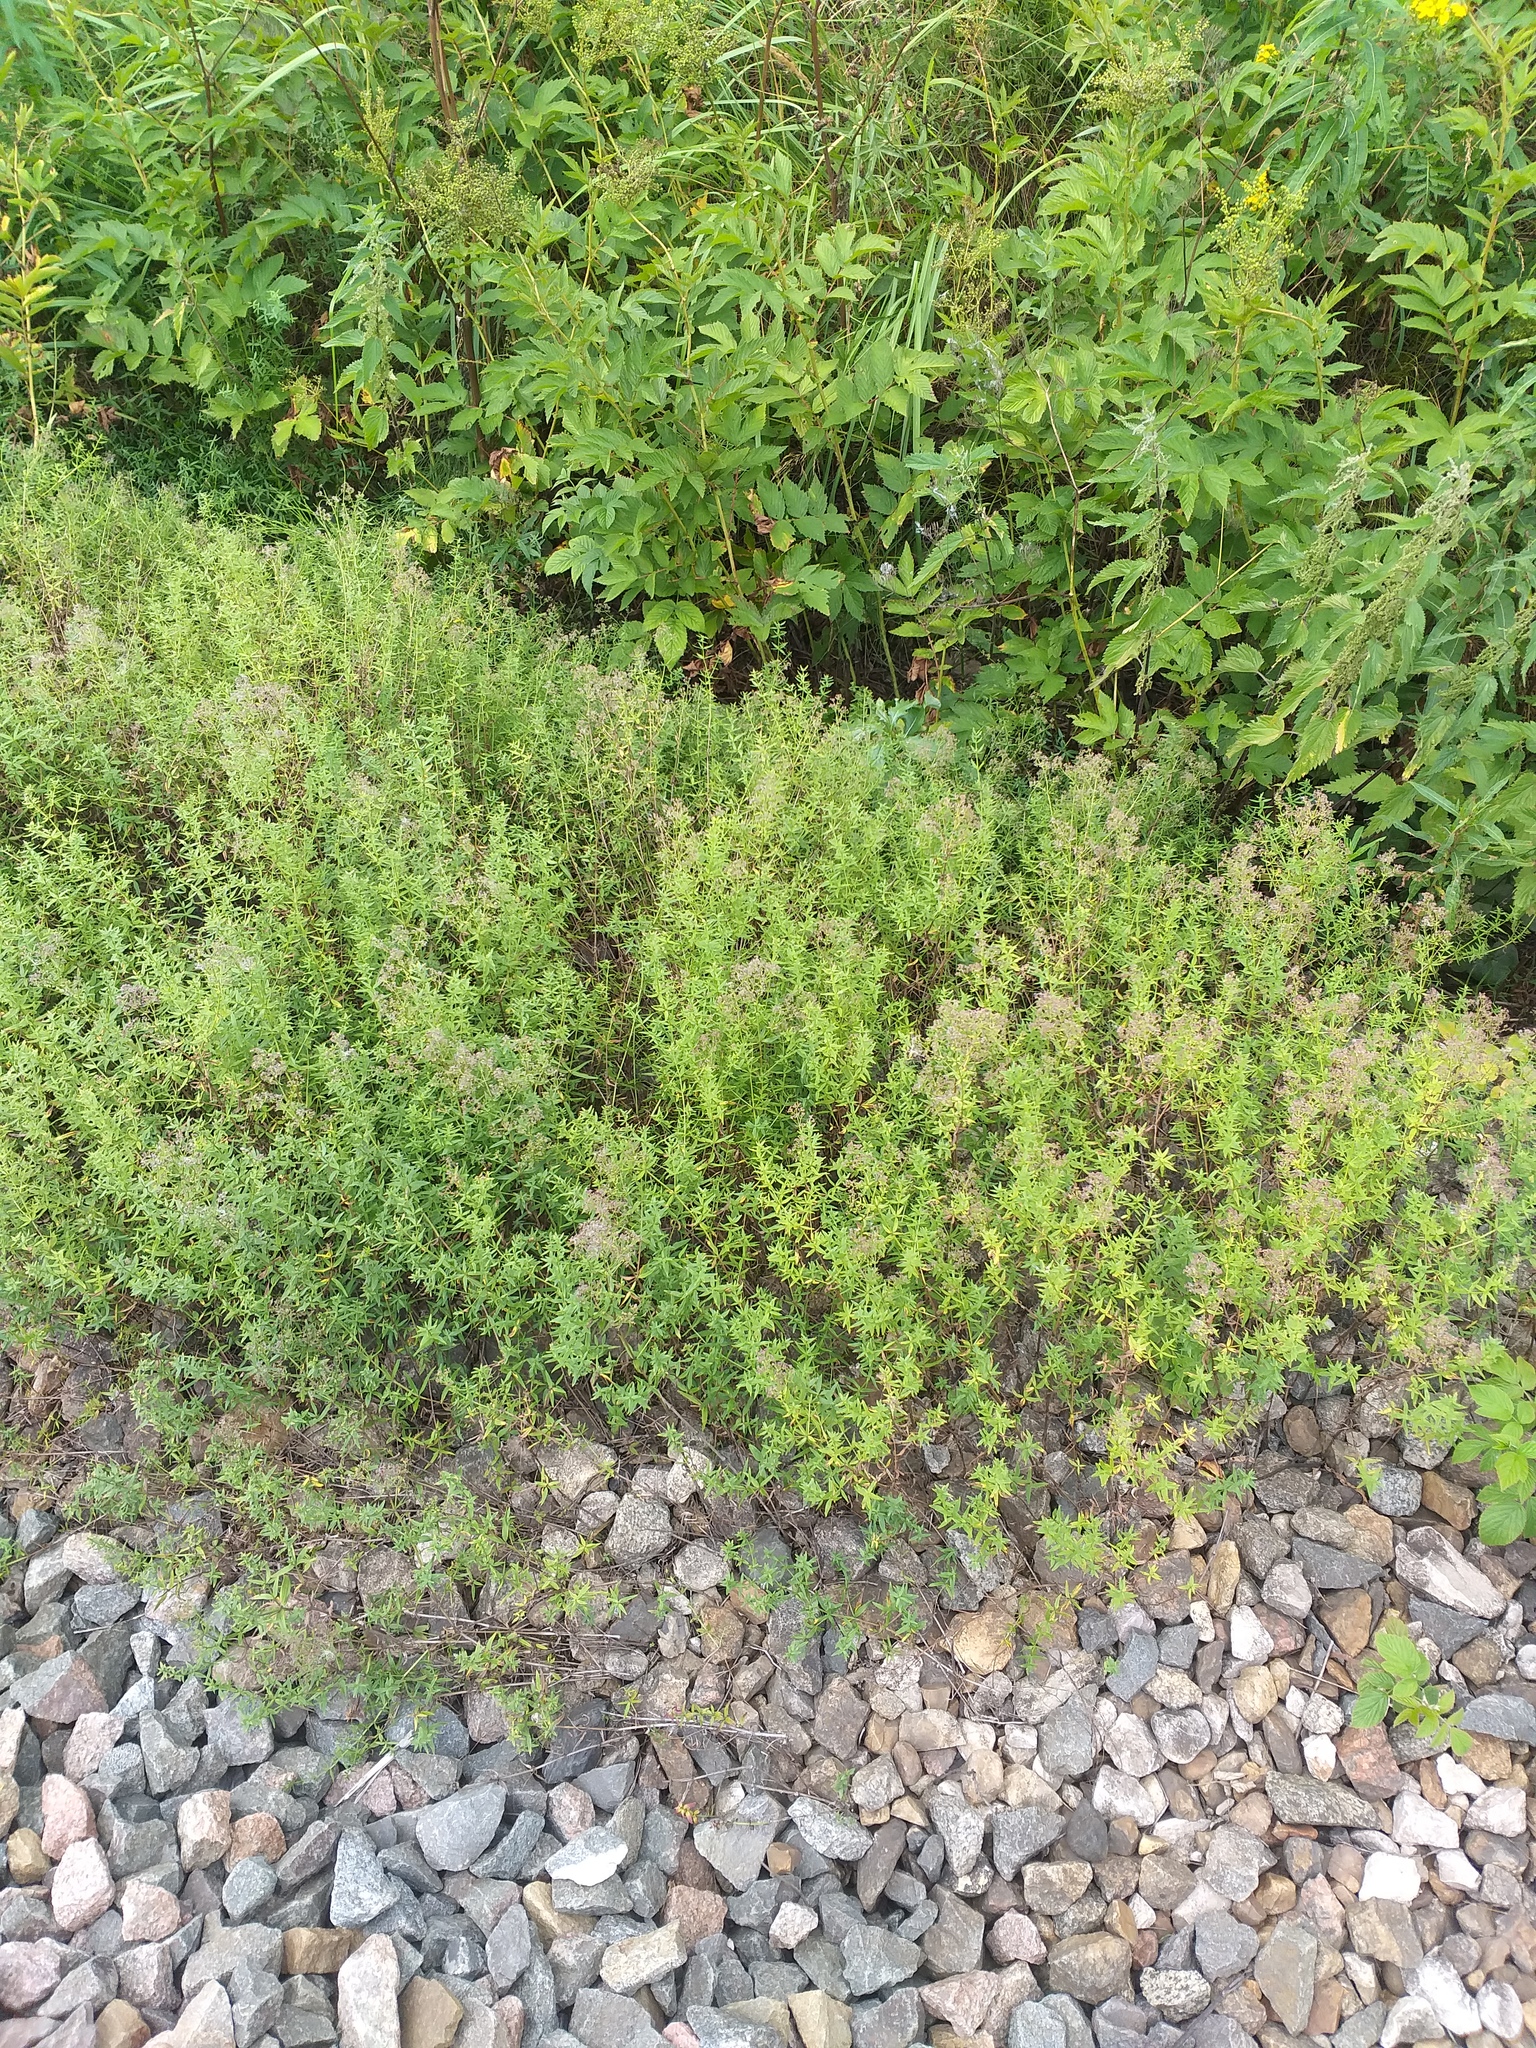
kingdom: Plantae
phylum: Tracheophyta
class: Magnoliopsida
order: Gentianales
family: Rubiaceae
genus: Galium
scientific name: Galium boreale
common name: Northern bedstraw
